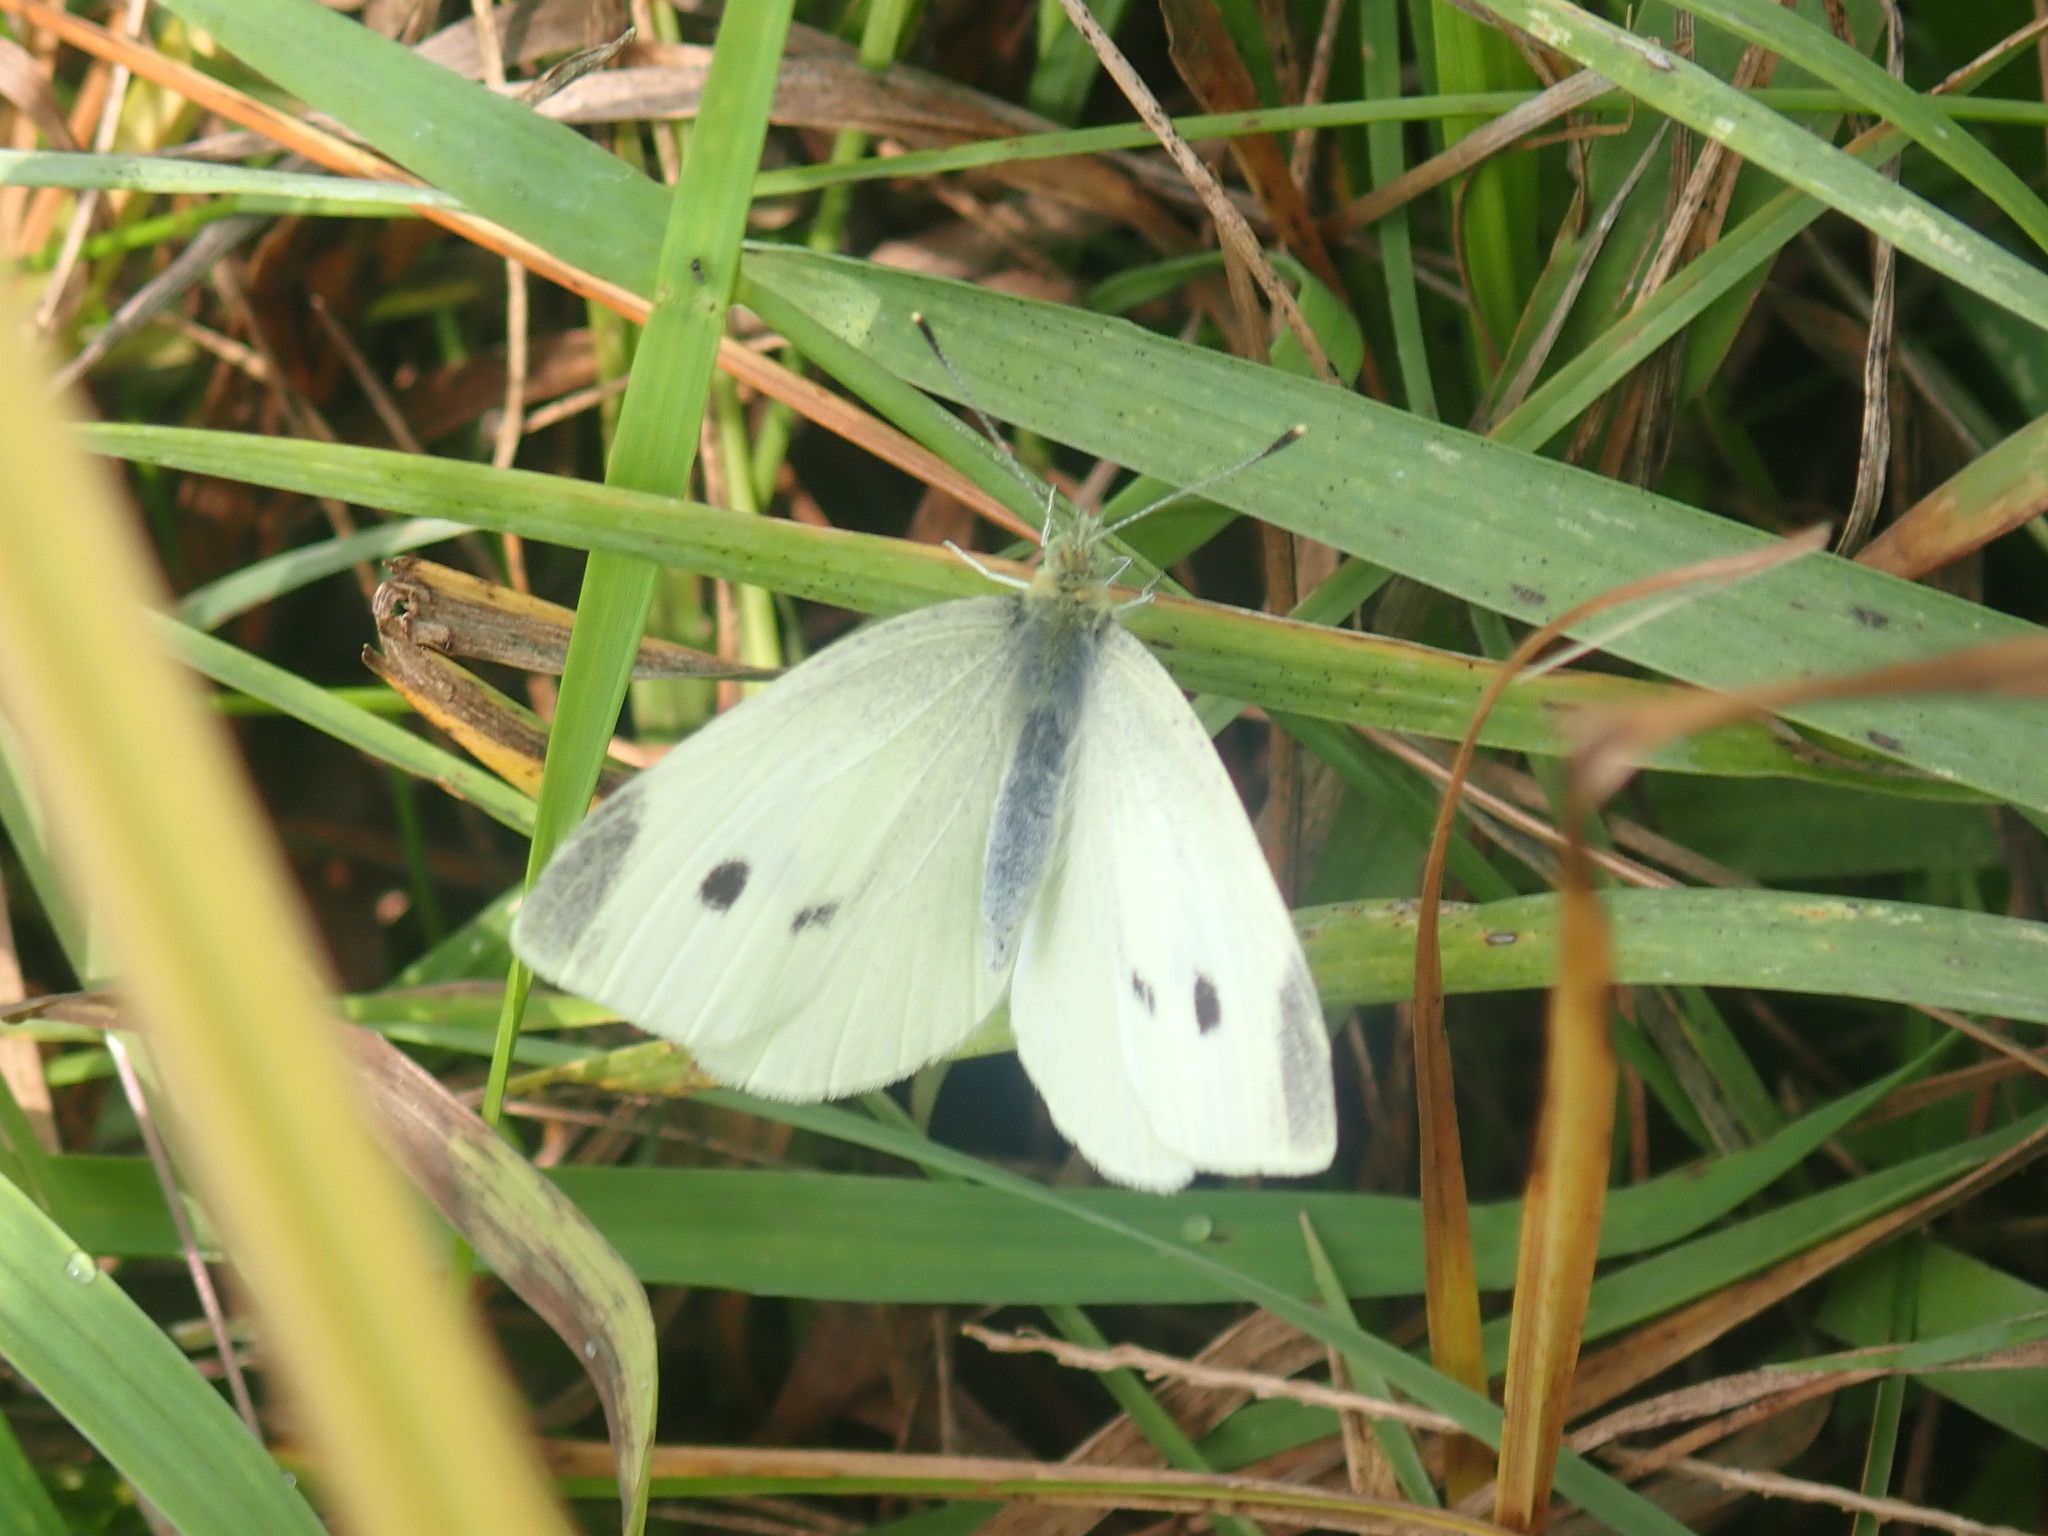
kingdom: Animalia
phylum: Arthropoda
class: Insecta
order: Lepidoptera
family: Pieridae
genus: Pieris
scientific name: Pieris rapae
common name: Small white
